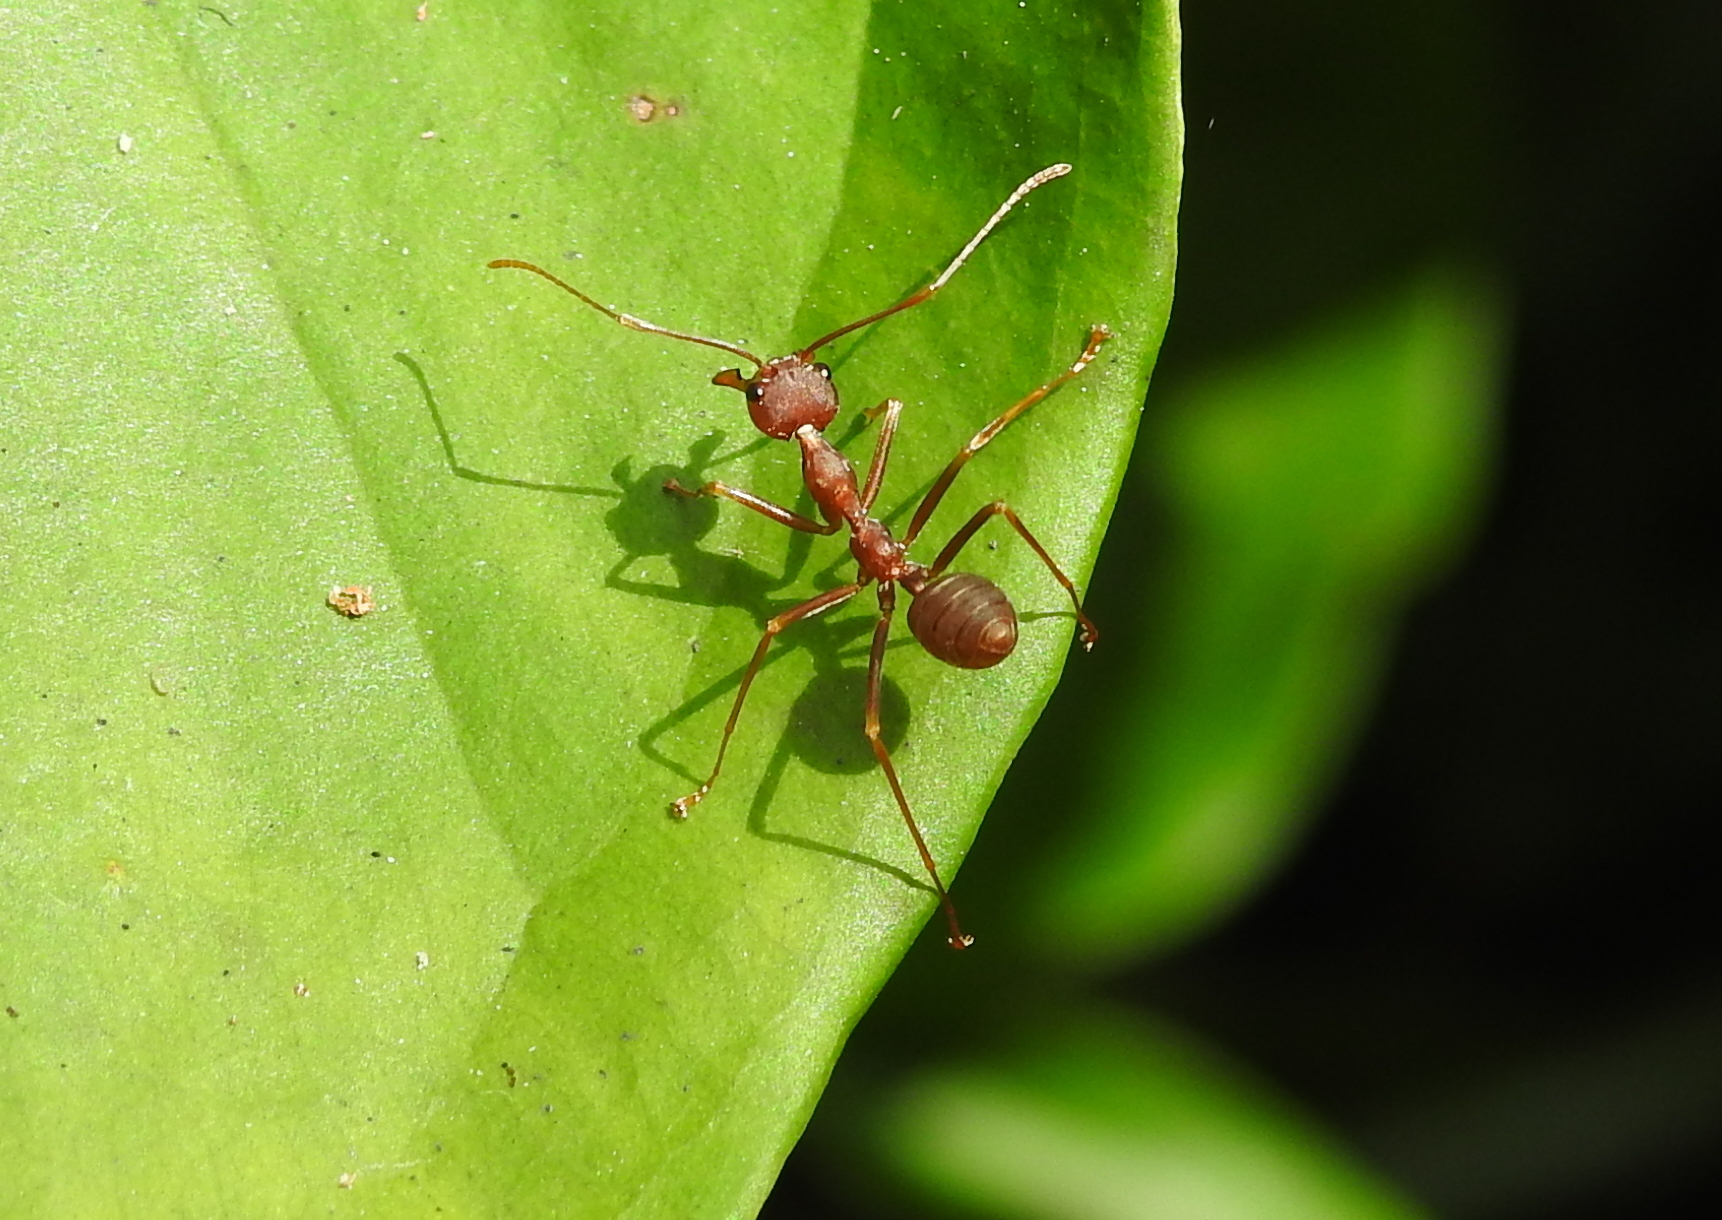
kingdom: Animalia
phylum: Arthropoda
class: Insecta
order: Hymenoptera
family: Formicidae
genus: Oecophylla
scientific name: Oecophylla smaragdina
